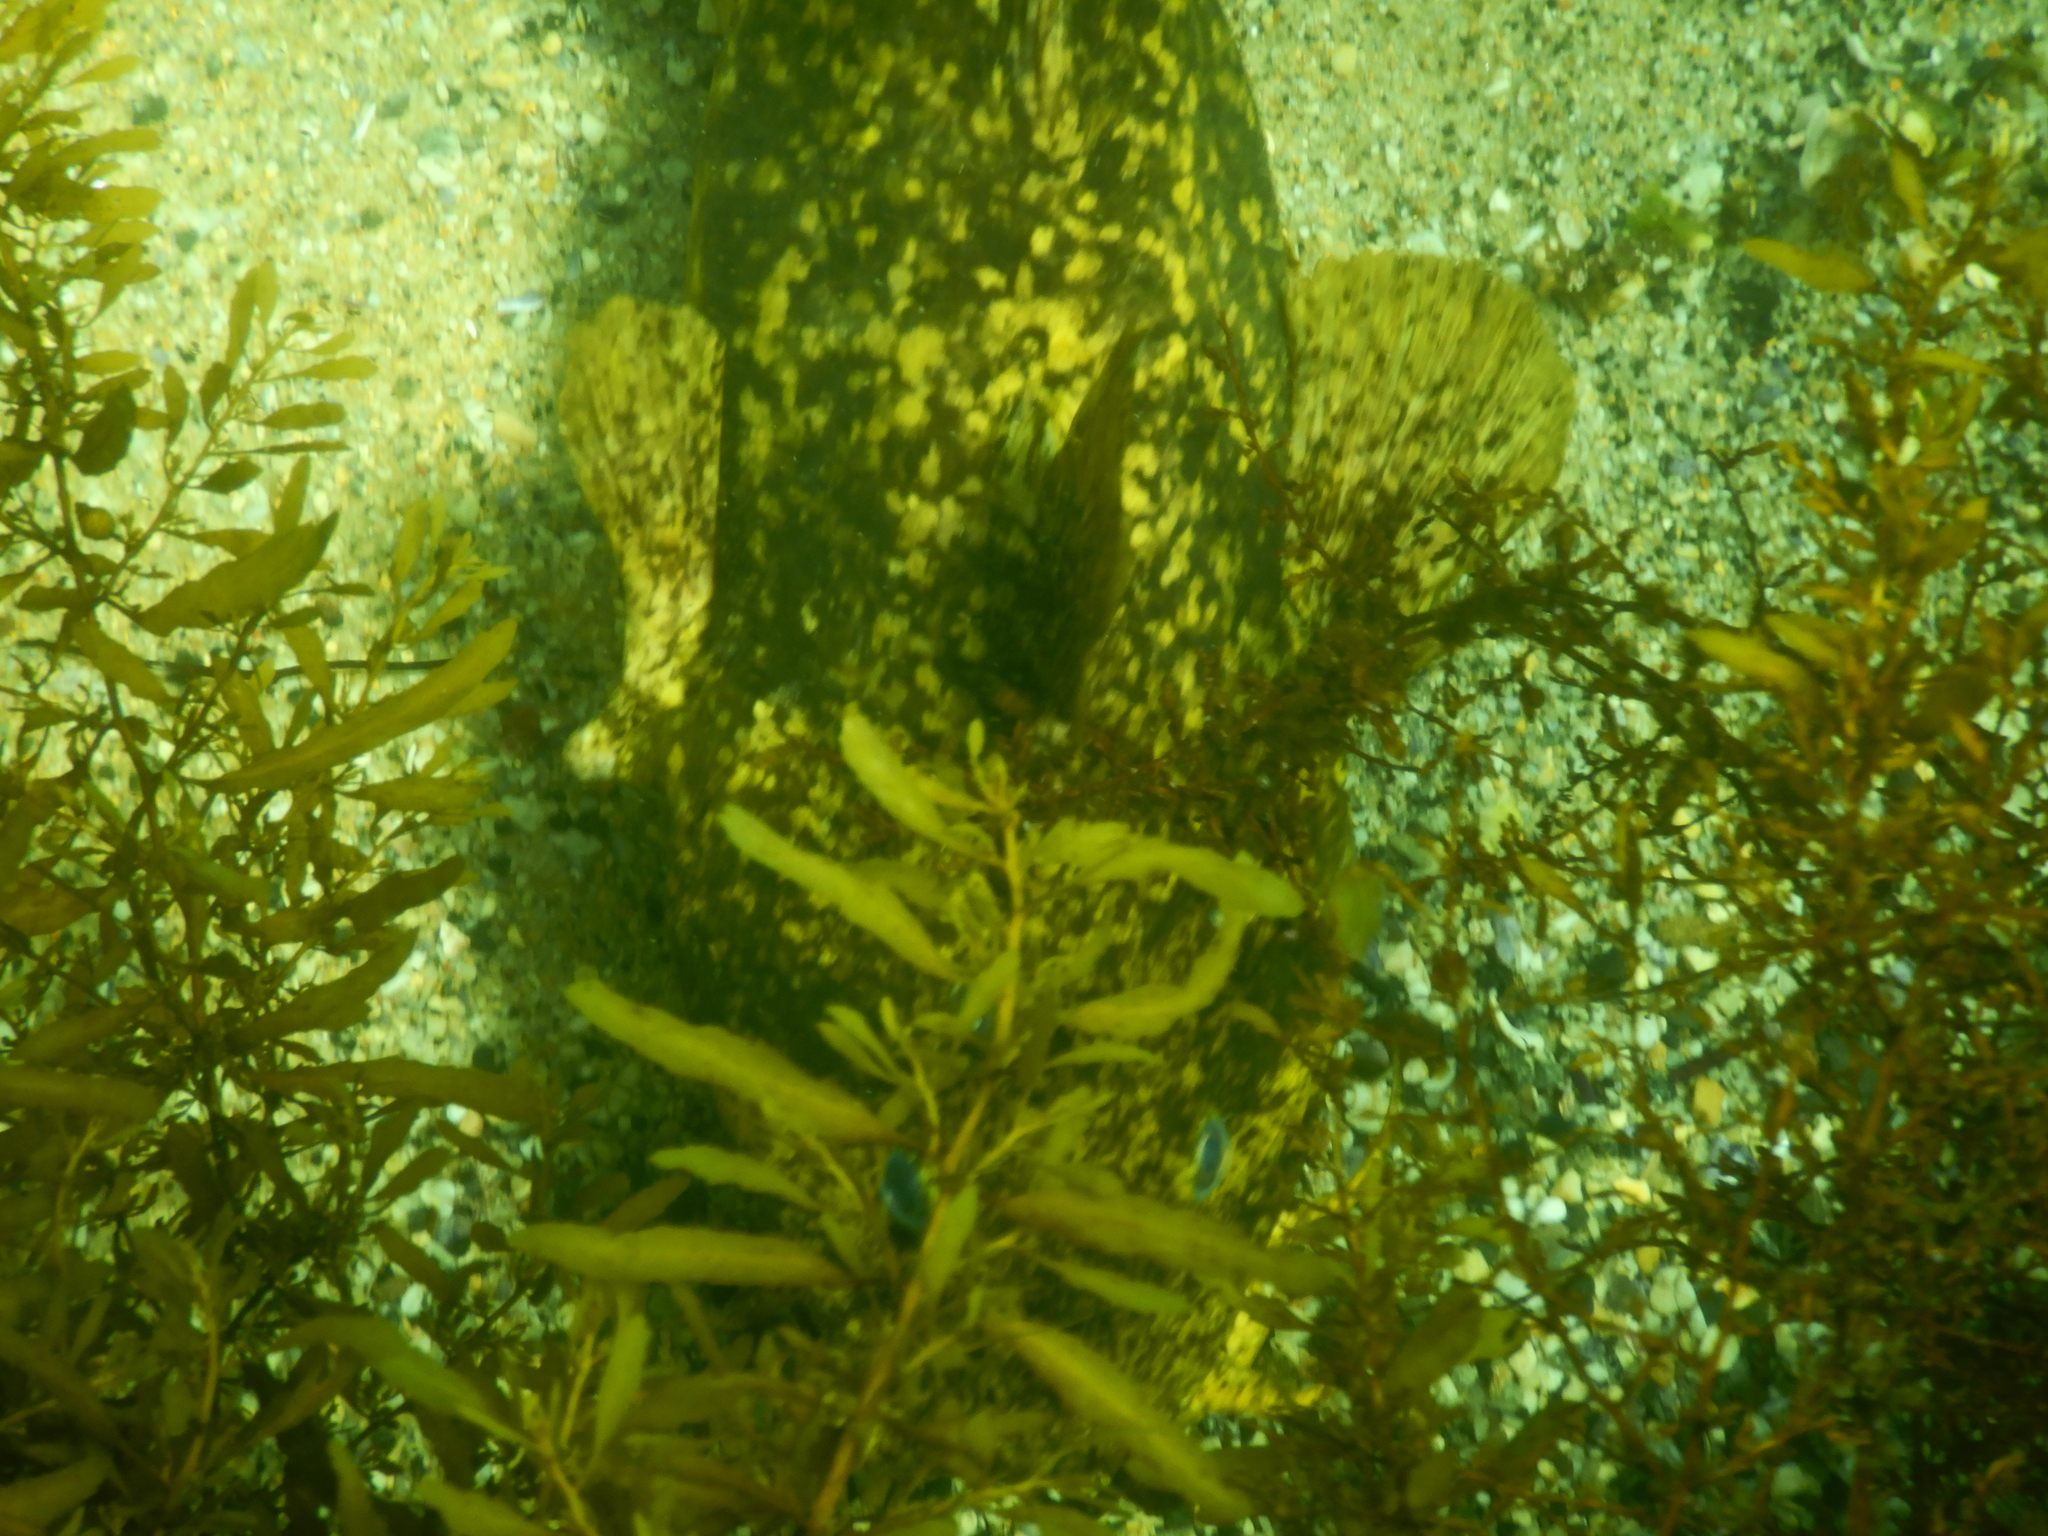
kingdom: Animalia
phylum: Chordata
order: Siluriformes
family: Plotosidae
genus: Cnidoglanis
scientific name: Cnidoglanis macrocephalus
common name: Cobbler
